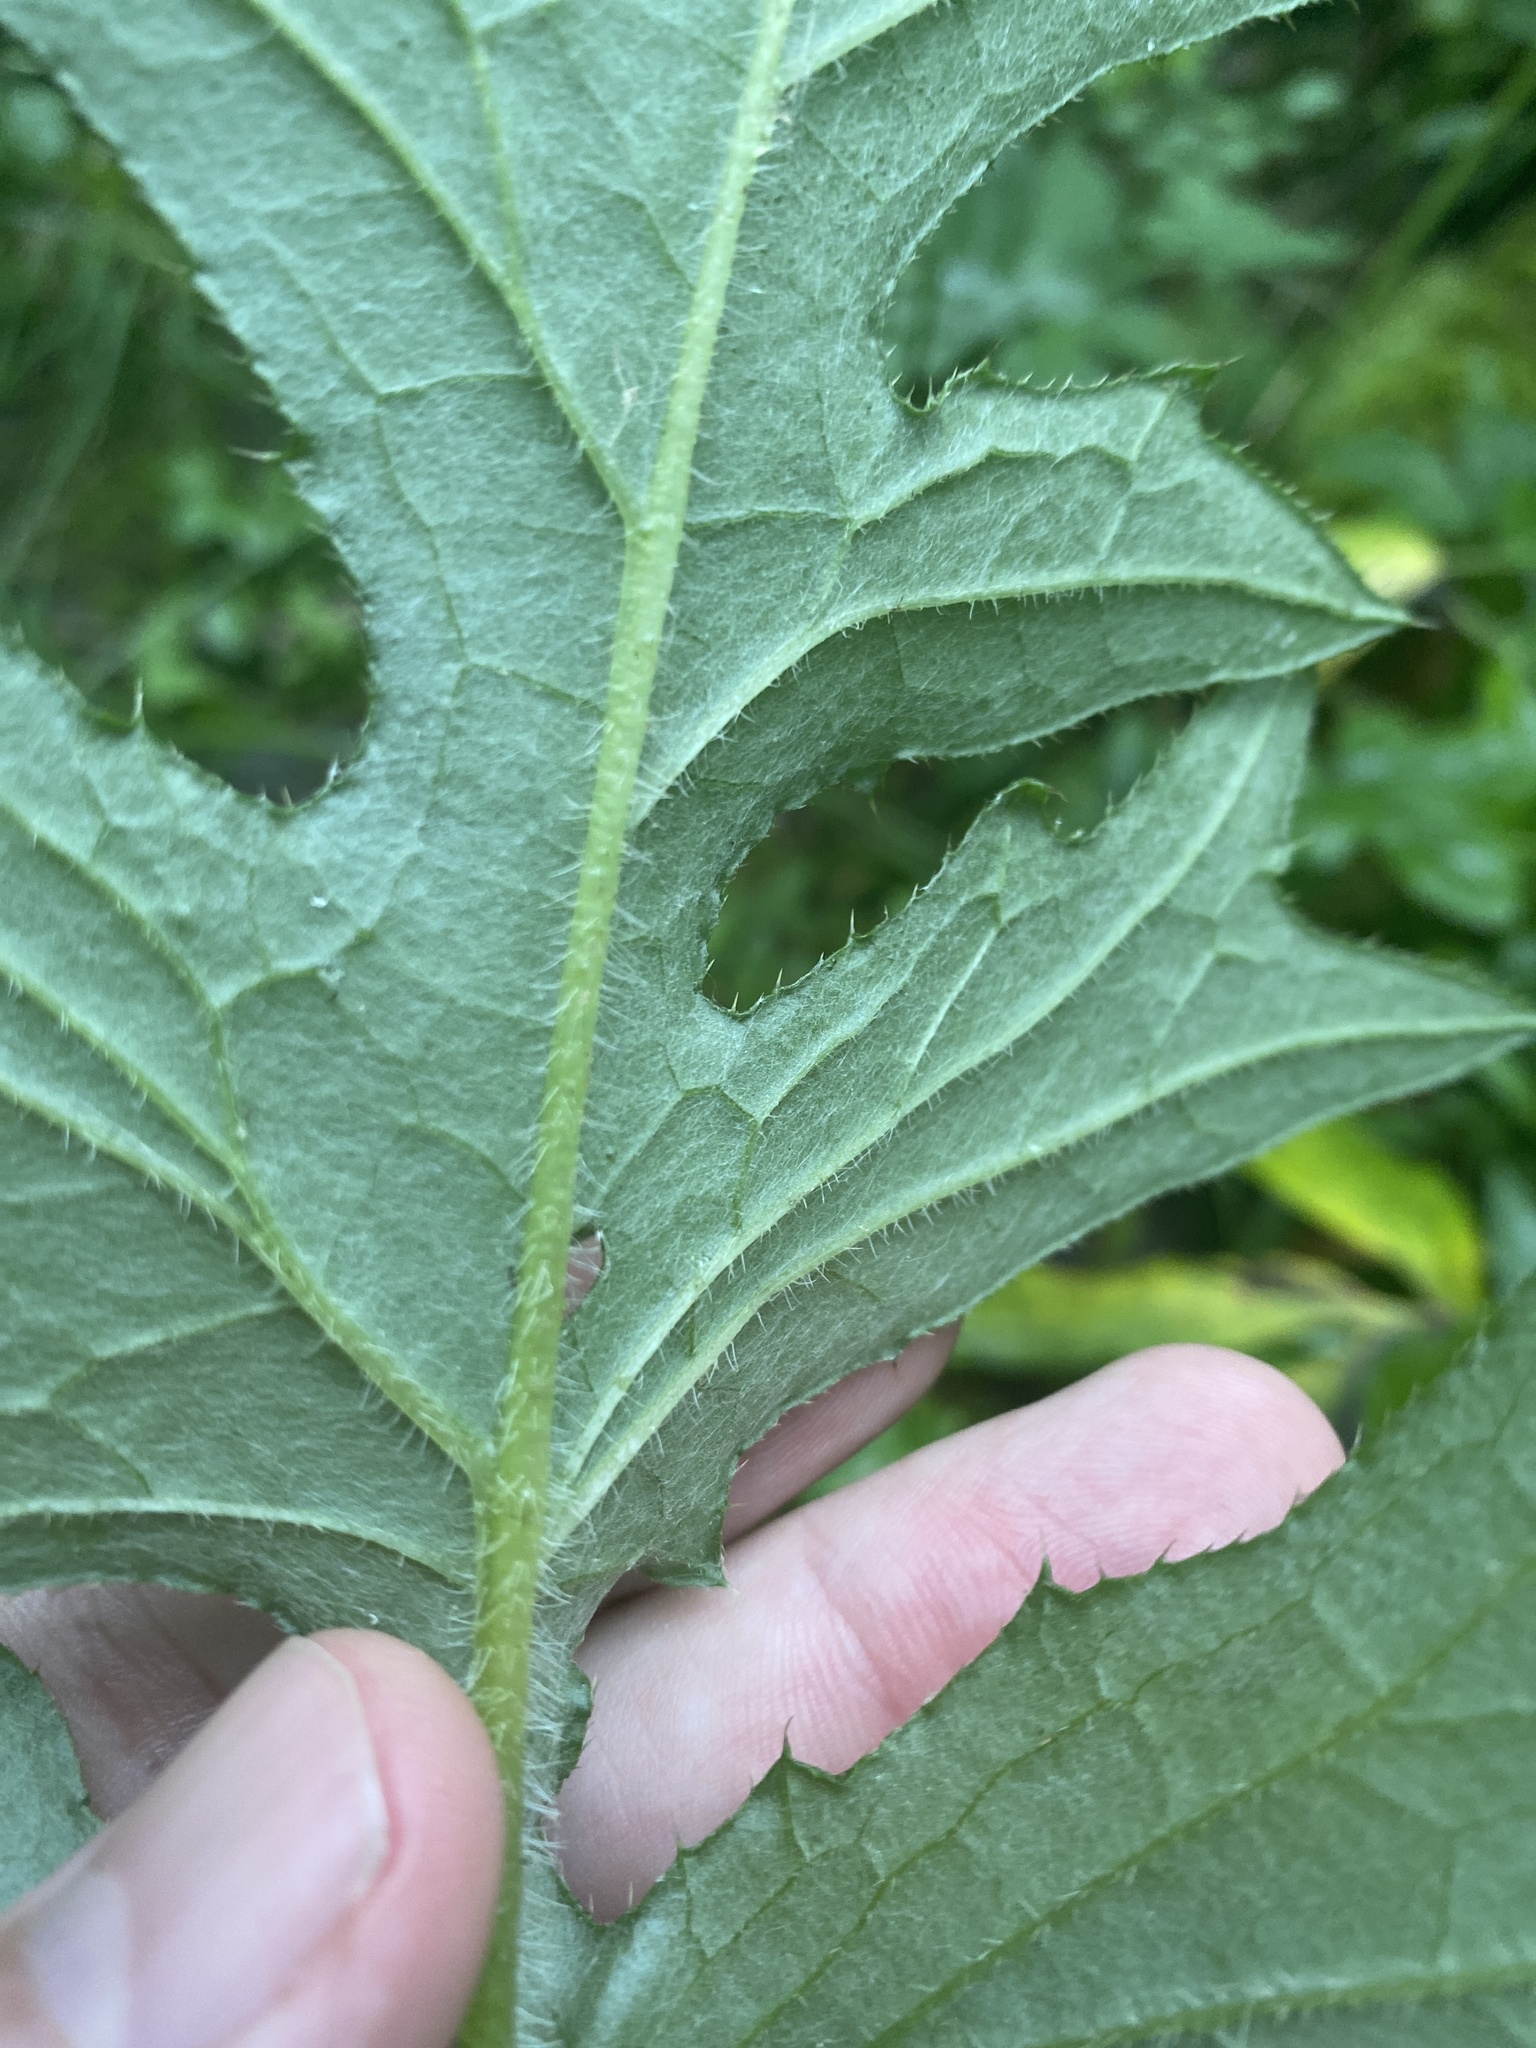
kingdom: Plantae
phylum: Tracheophyta
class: Magnoliopsida
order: Asterales
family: Asteraceae
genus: Cirsium
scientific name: Cirsium muticum
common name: Dunce-nettle
